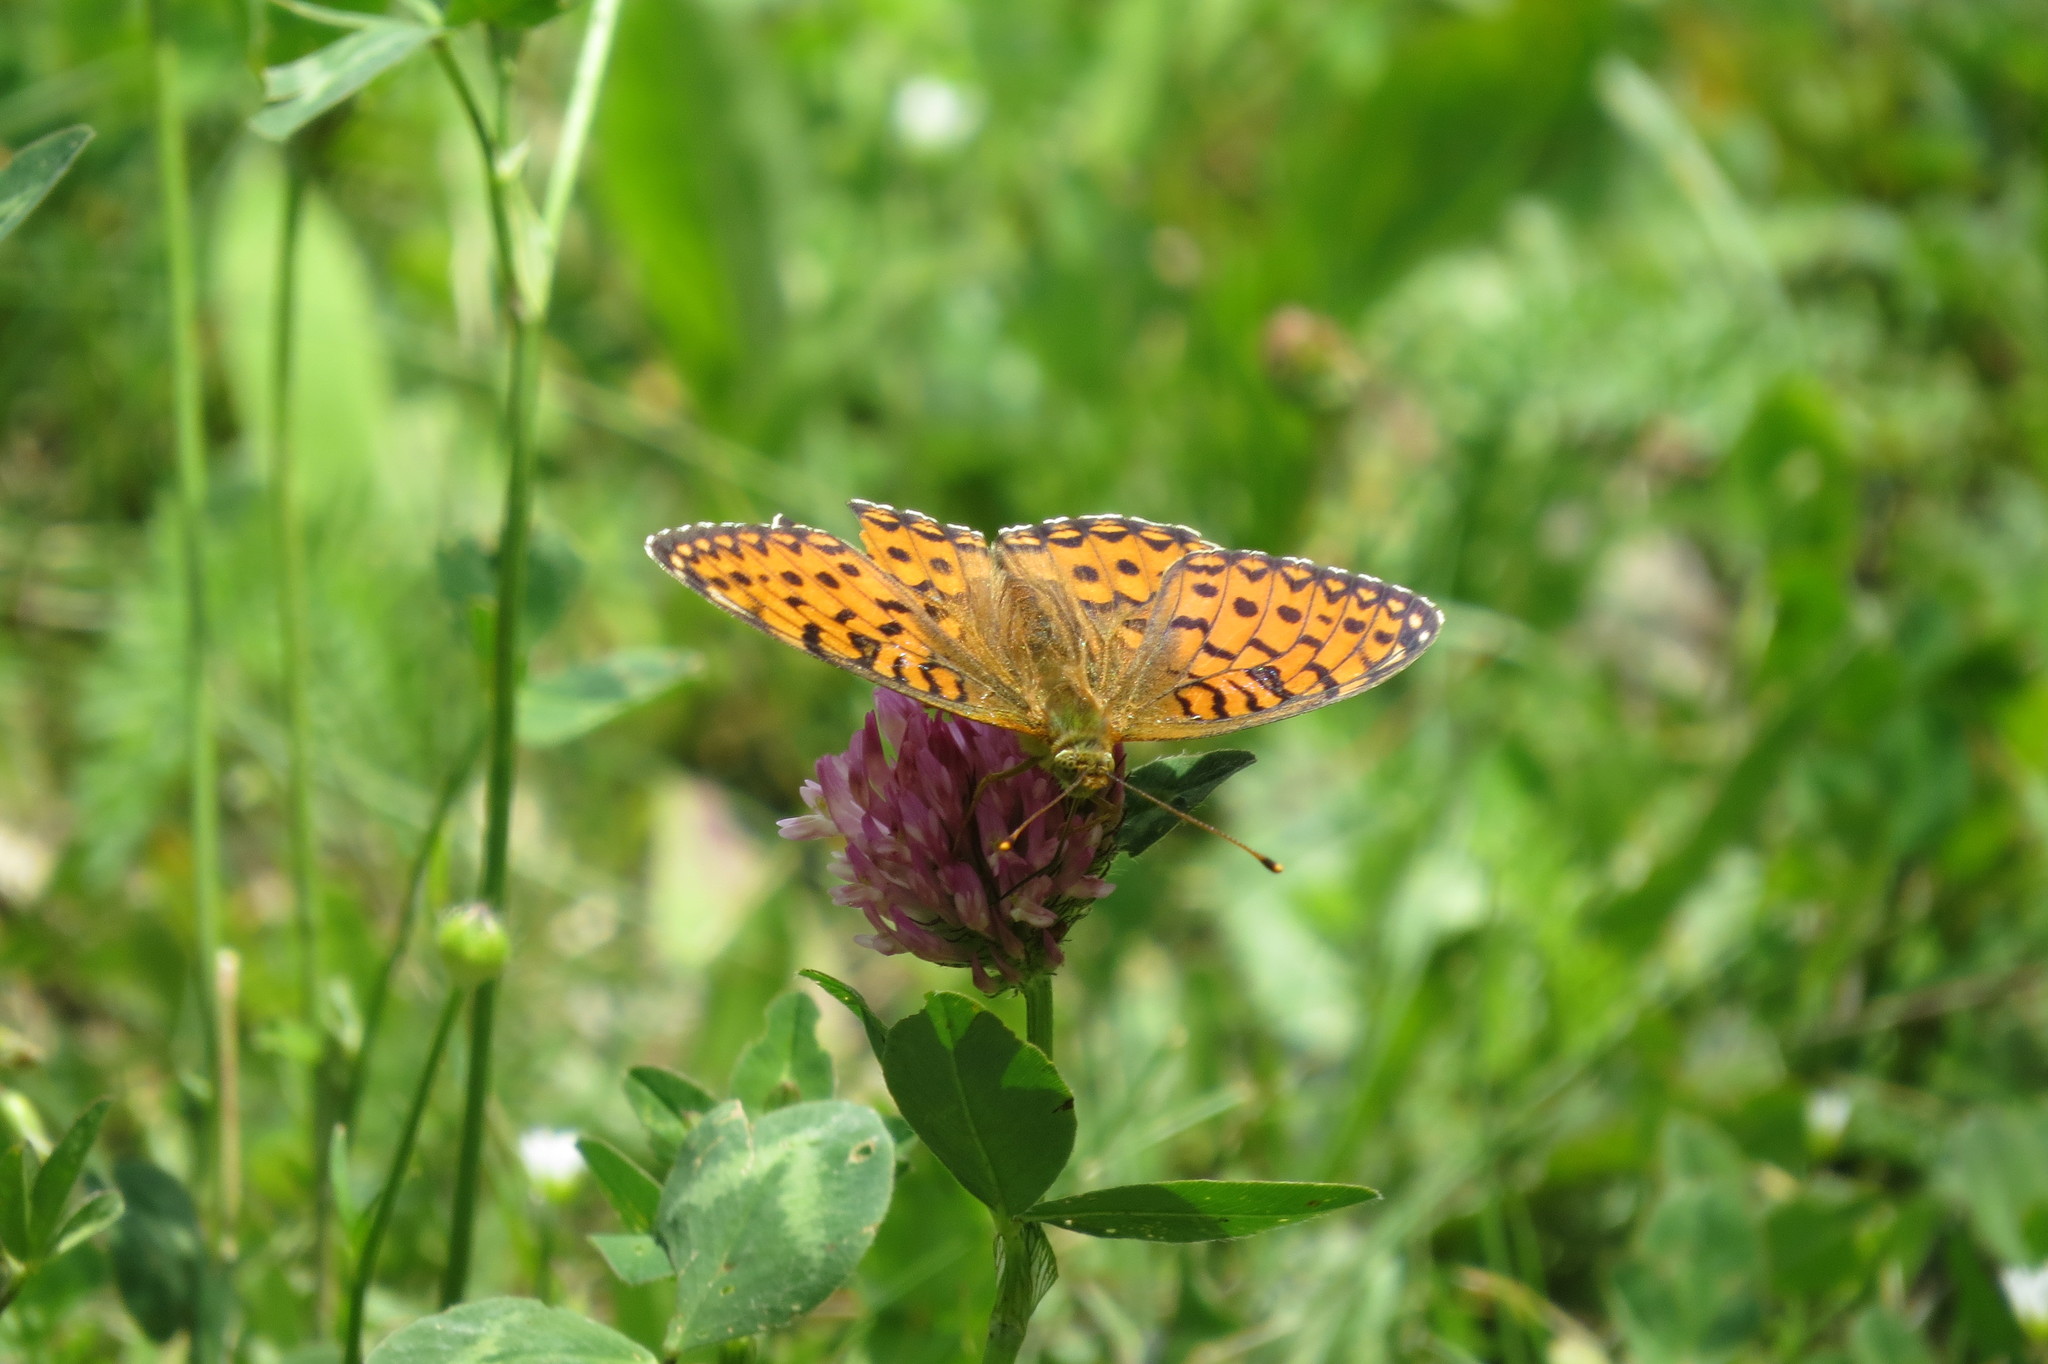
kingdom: Animalia
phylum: Arthropoda
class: Insecta
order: Lepidoptera
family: Nymphalidae
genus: Speyeria
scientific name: Speyeria aglaja
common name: Dark green fritillary
